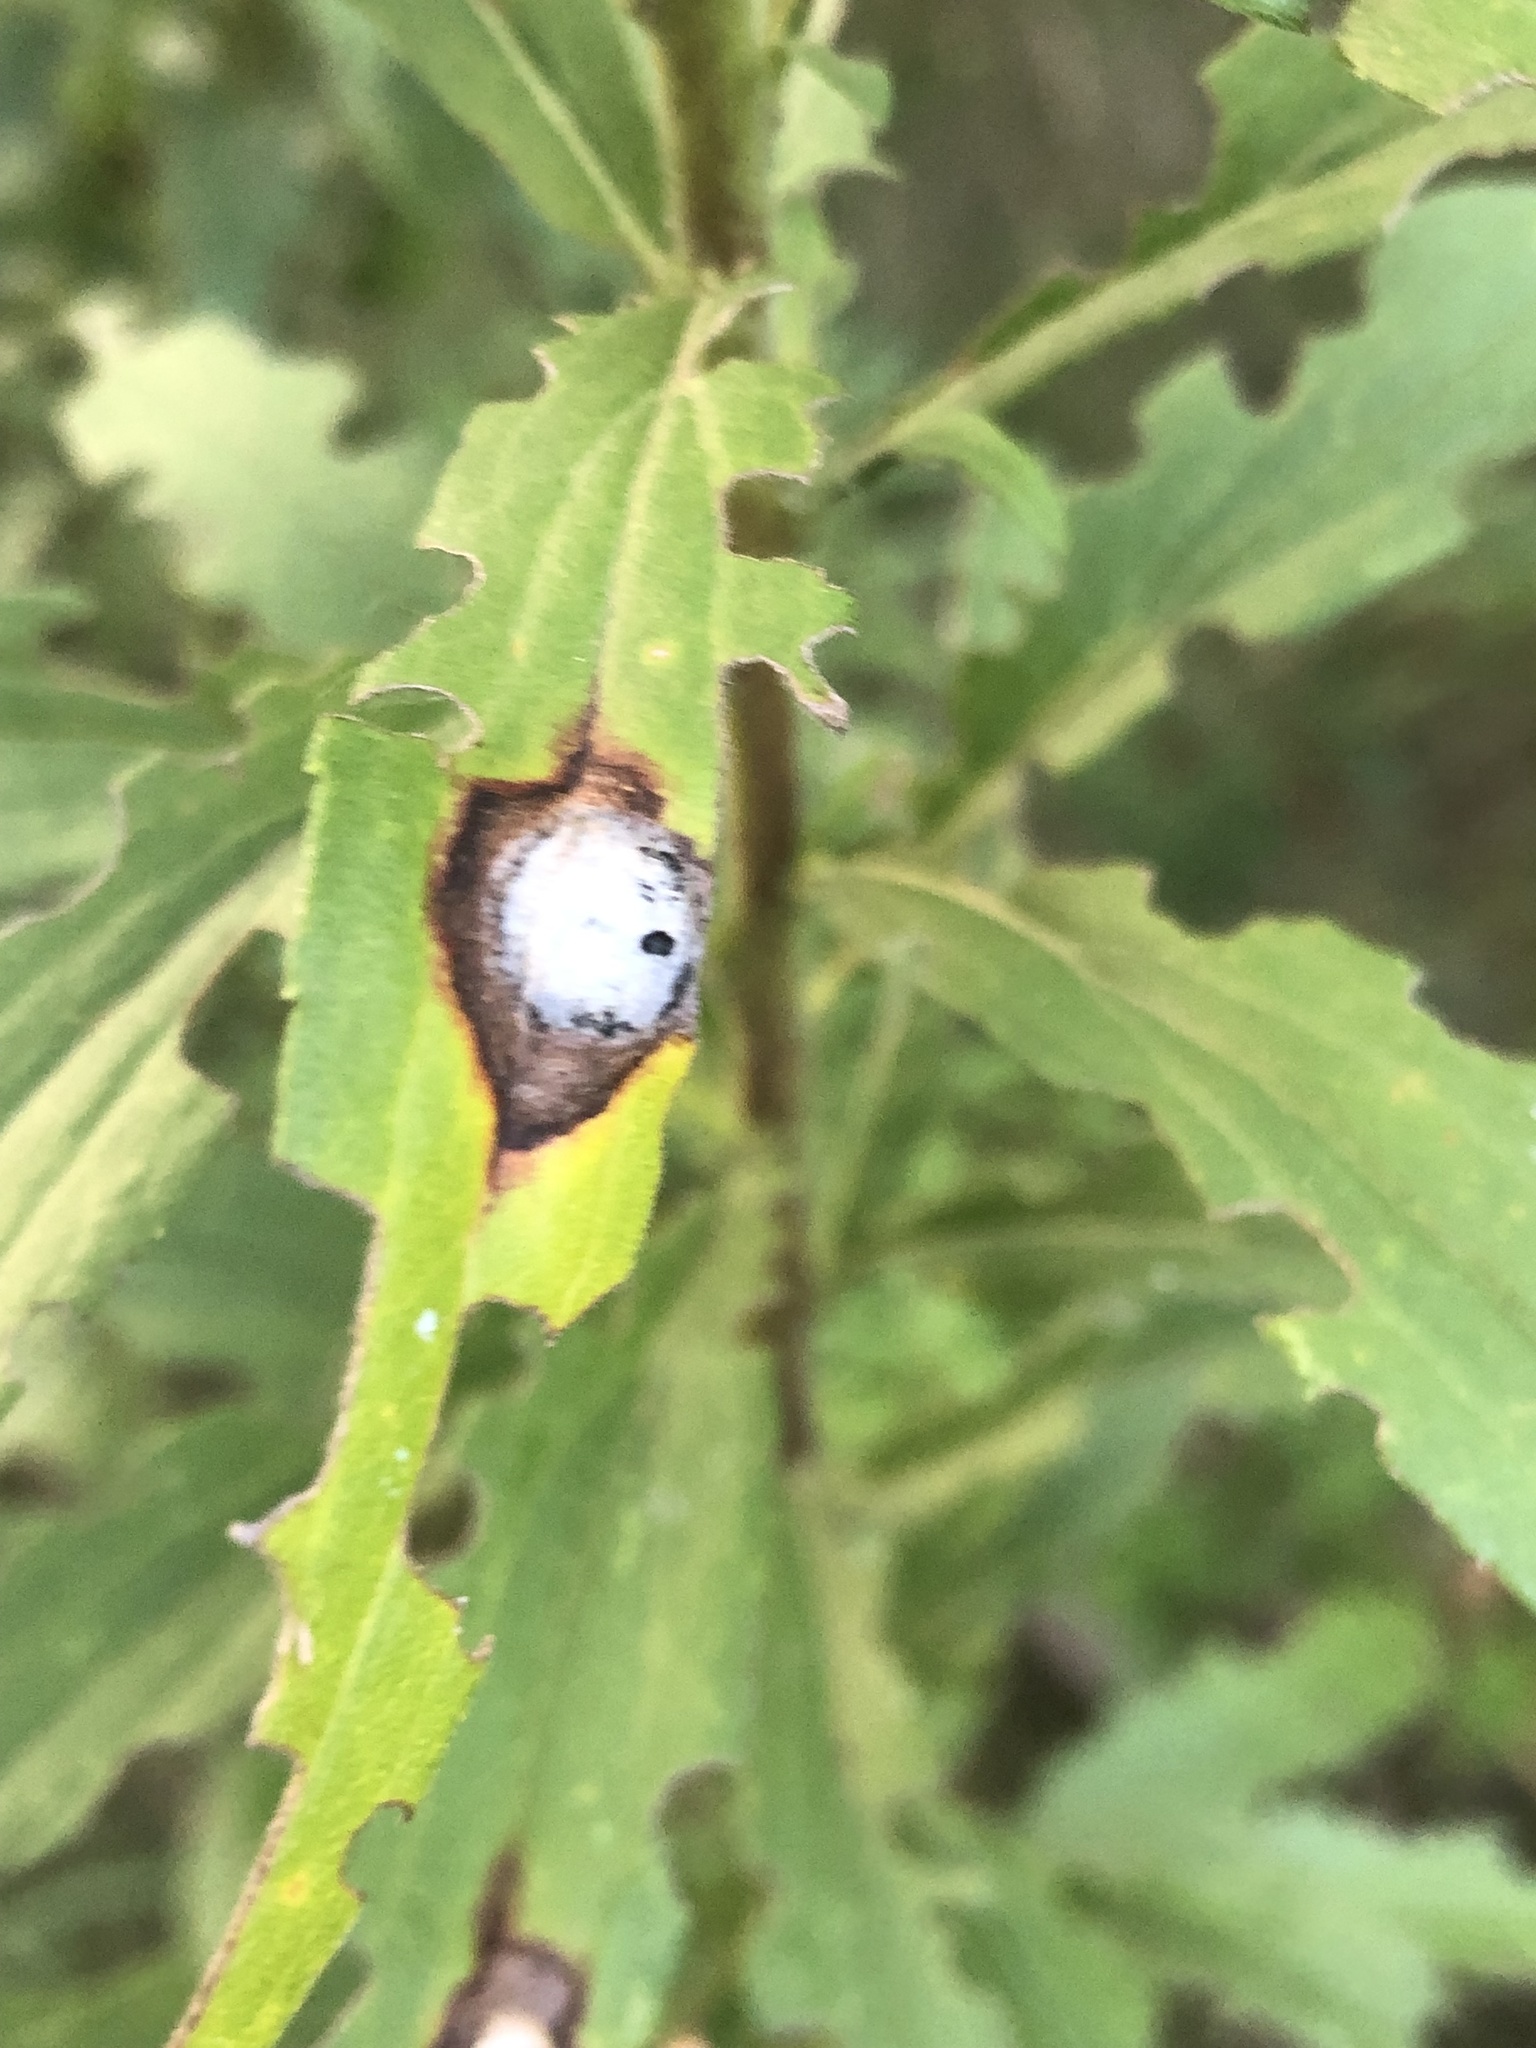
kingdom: Animalia
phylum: Arthropoda
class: Insecta
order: Diptera
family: Cecidomyiidae
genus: Asteromyia
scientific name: Asteromyia carbonifera
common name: Carbonifera goldenrod gall midge
